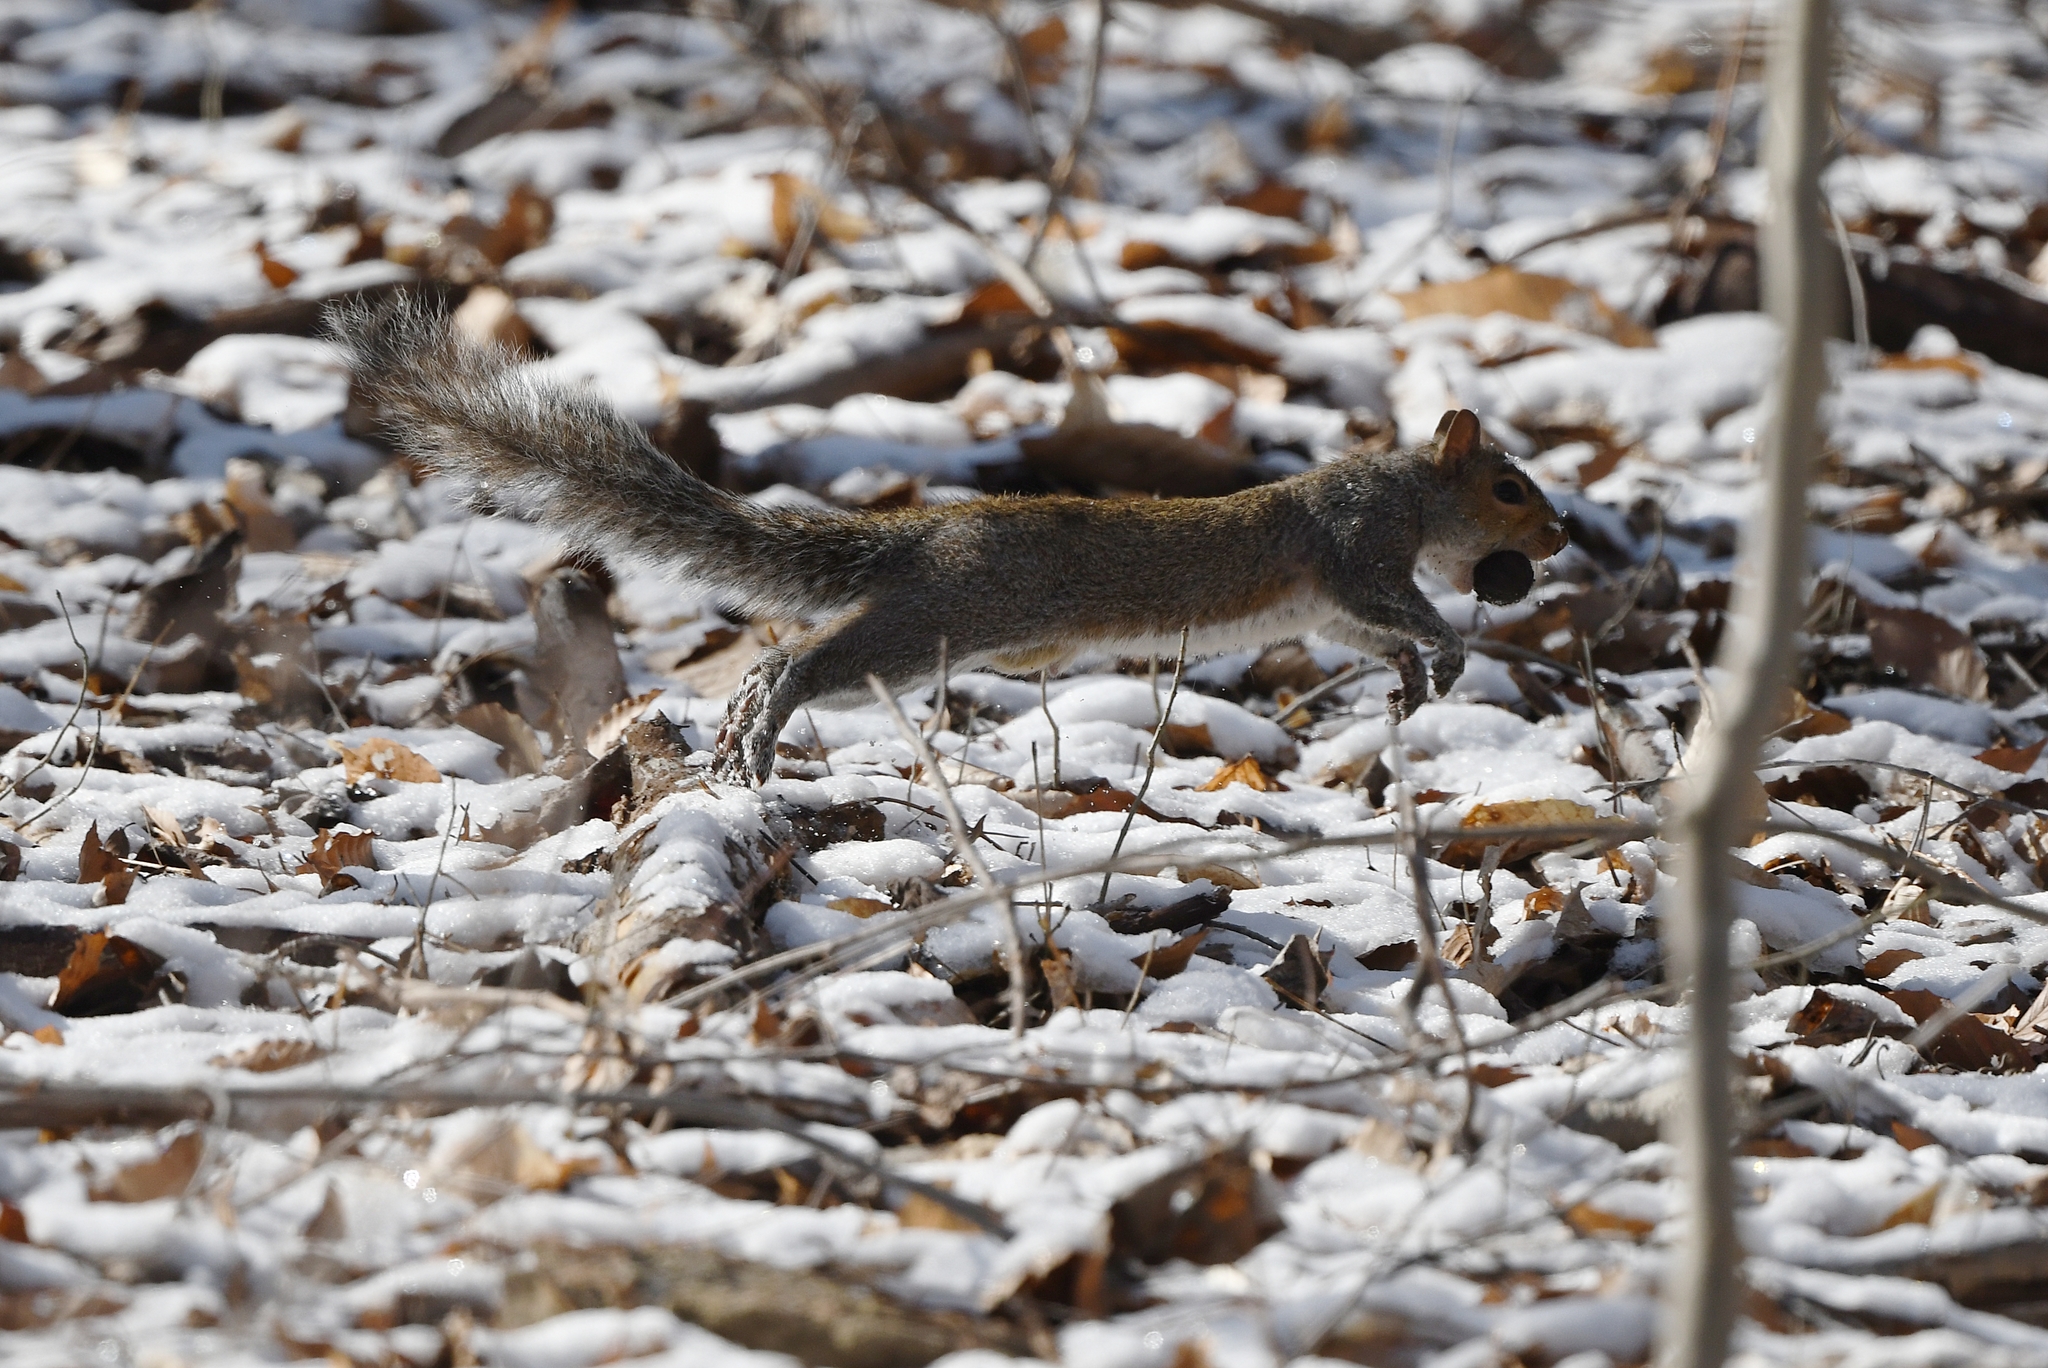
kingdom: Animalia
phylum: Chordata
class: Mammalia
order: Rodentia
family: Sciuridae
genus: Sciurus
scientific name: Sciurus carolinensis
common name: Eastern gray squirrel
